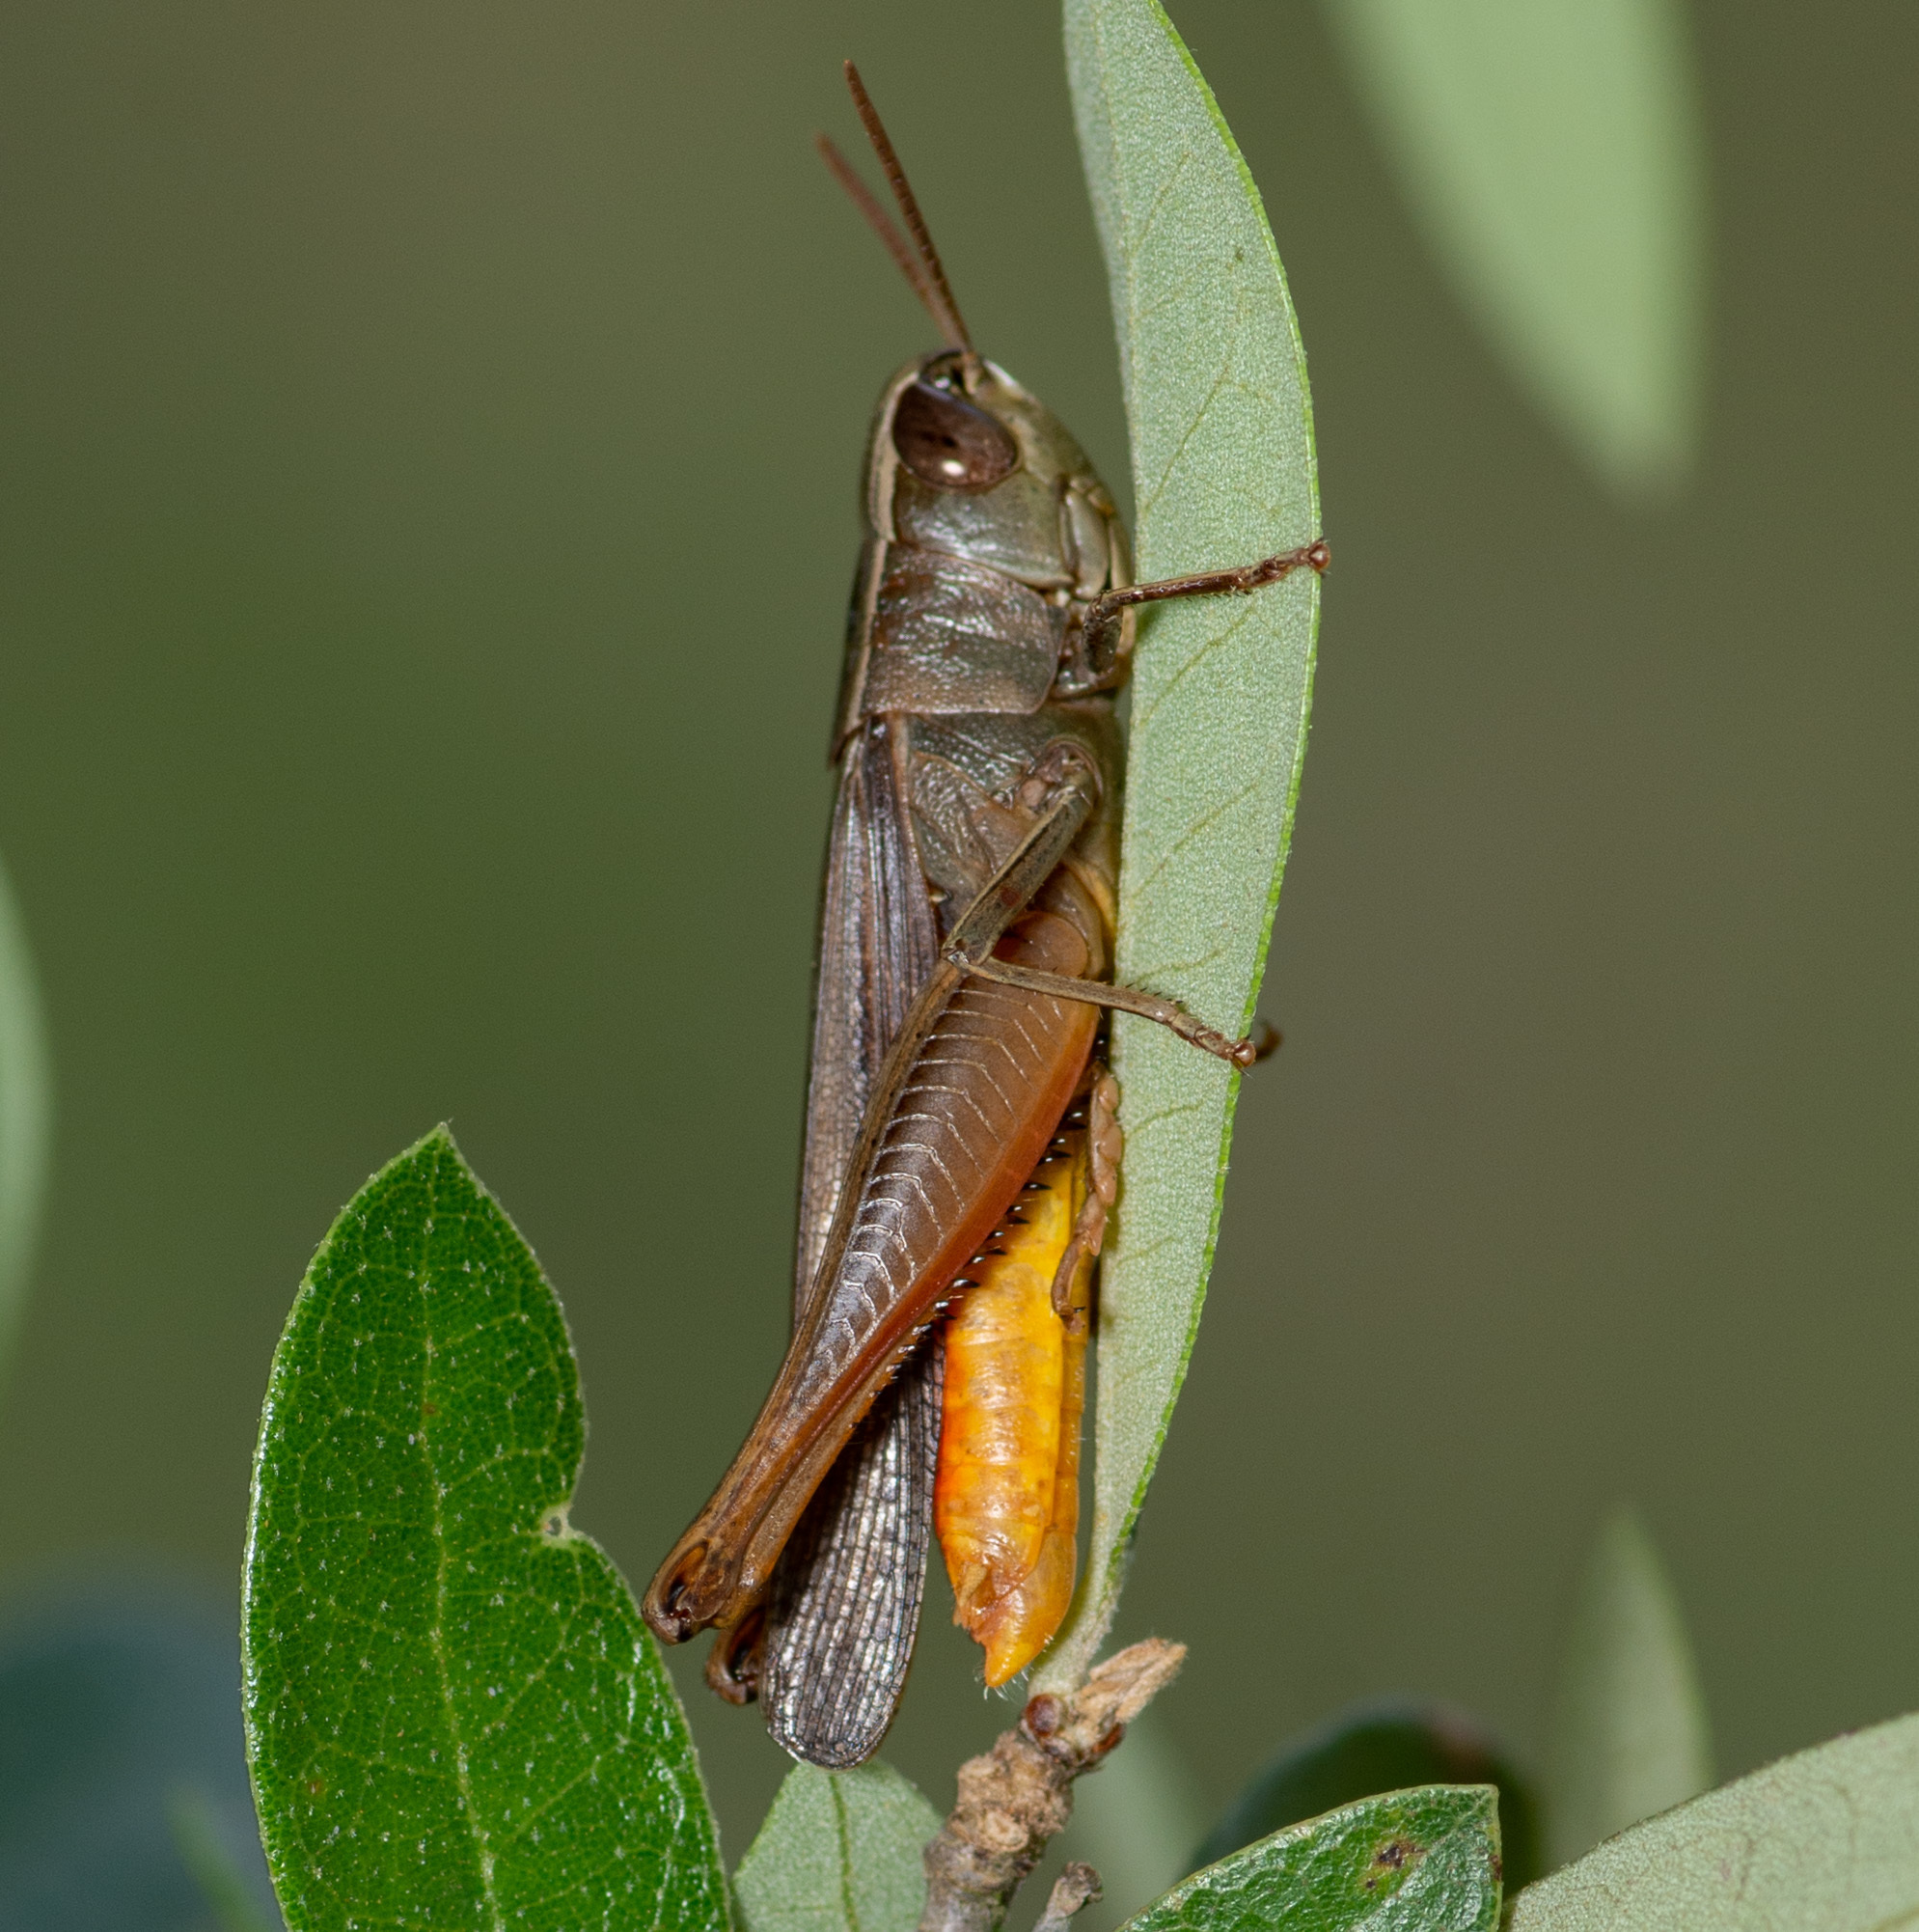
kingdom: Animalia
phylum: Arthropoda
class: Insecta
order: Orthoptera
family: Acrididae
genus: Amblytropidia
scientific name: Amblytropidia mysteca
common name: Brown winter grasshopper
